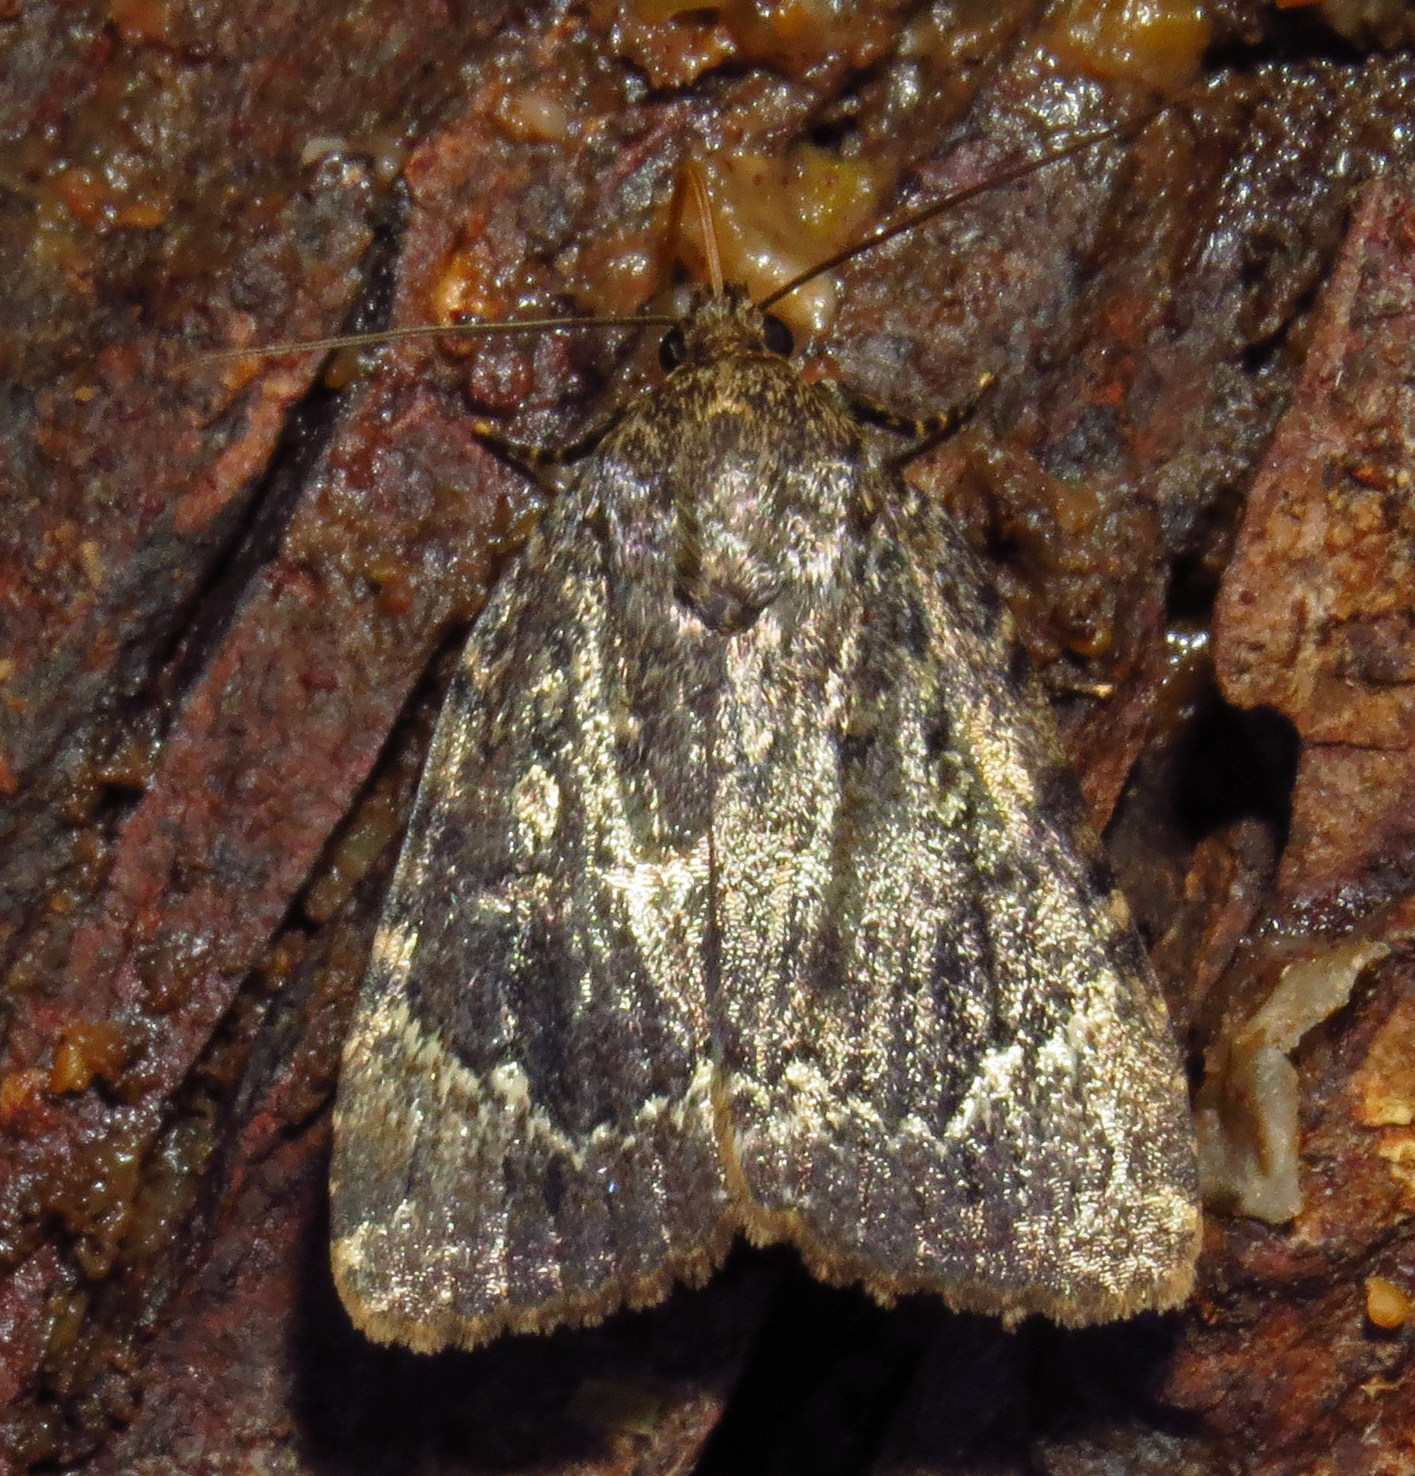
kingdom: Animalia
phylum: Arthropoda
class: Insecta
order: Lepidoptera
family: Noctuidae
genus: Amphipyra
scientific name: Amphipyra pyramidoides
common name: American copper underwing
